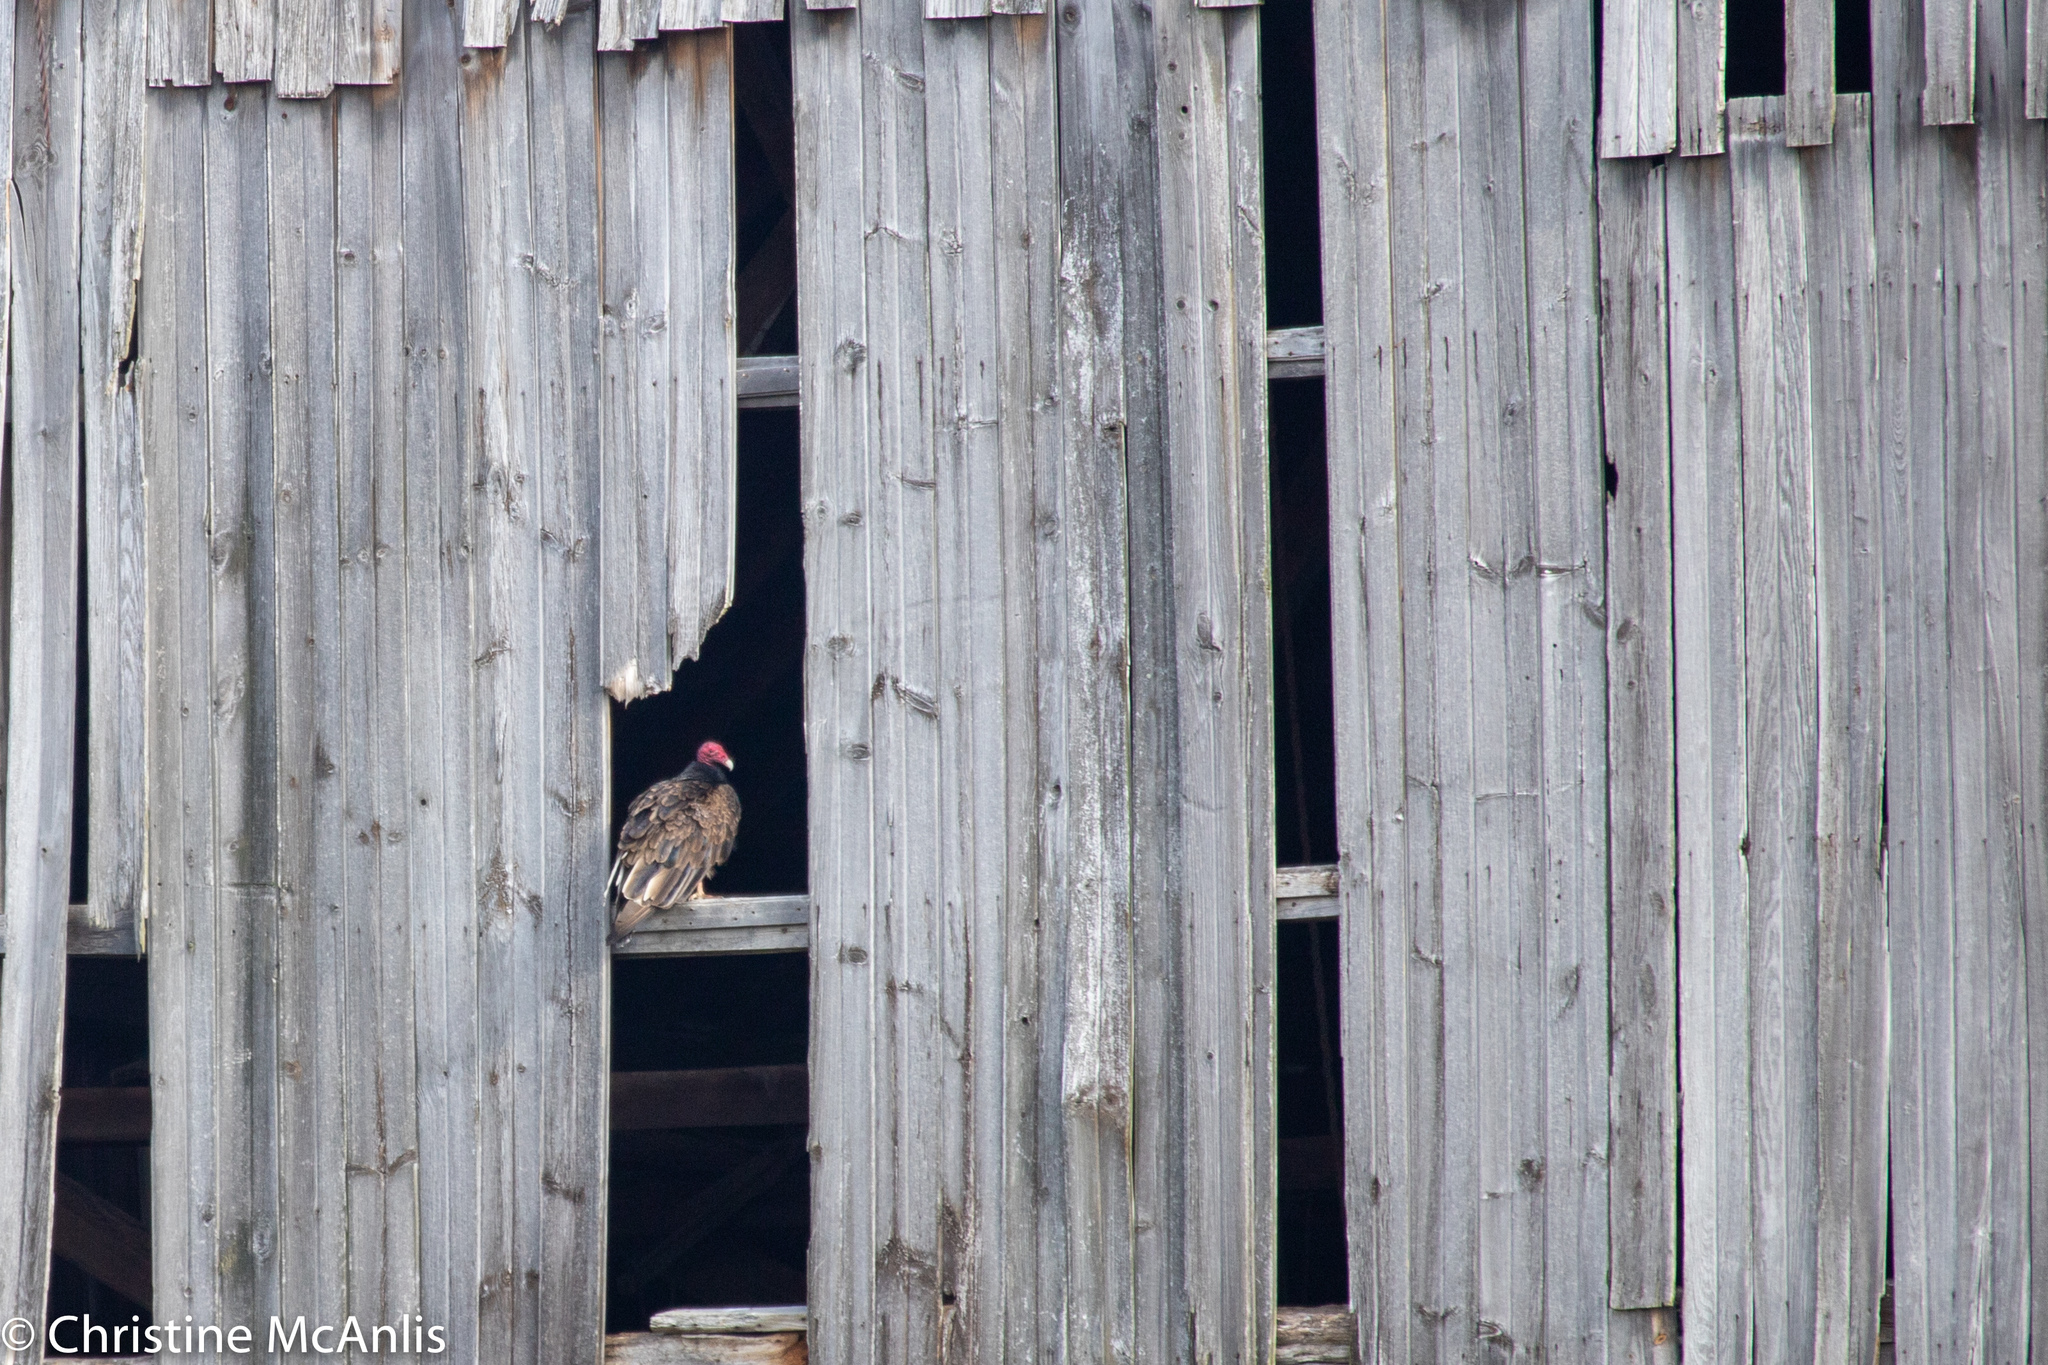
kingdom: Animalia
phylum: Chordata
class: Aves
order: Accipitriformes
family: Cathartidae
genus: Cathartes
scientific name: Cathartes aura
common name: Turkey vulture
